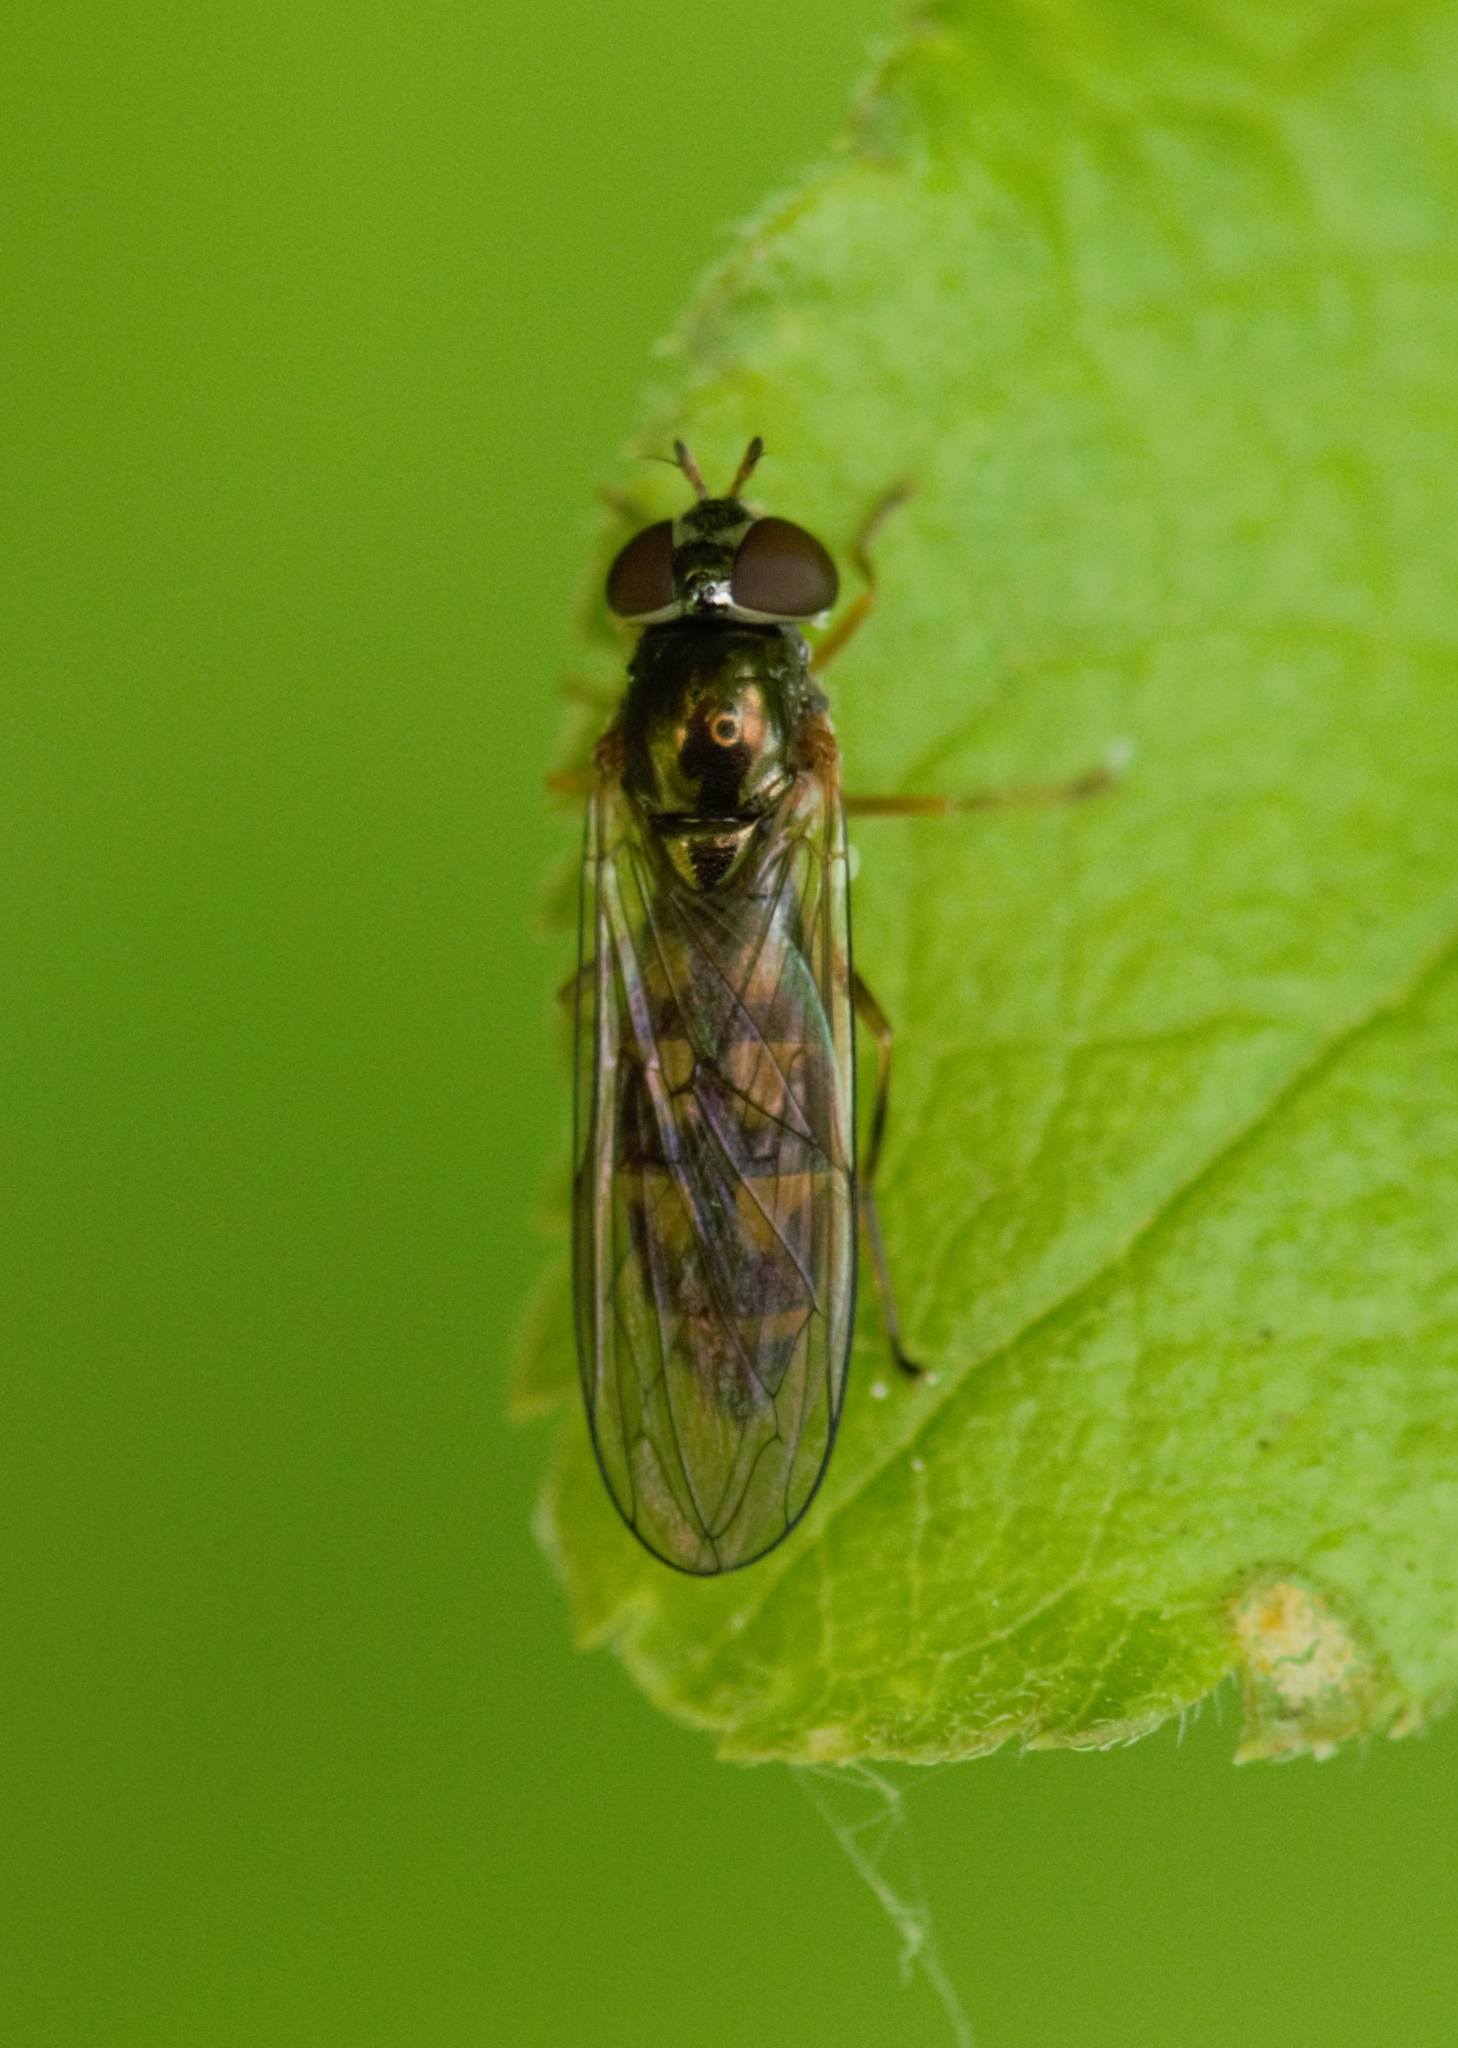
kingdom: Animalia
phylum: Arthropoda
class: Insecta
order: Diptera
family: Syrphidae
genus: Melanostoma
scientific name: Melanostoma scalare
